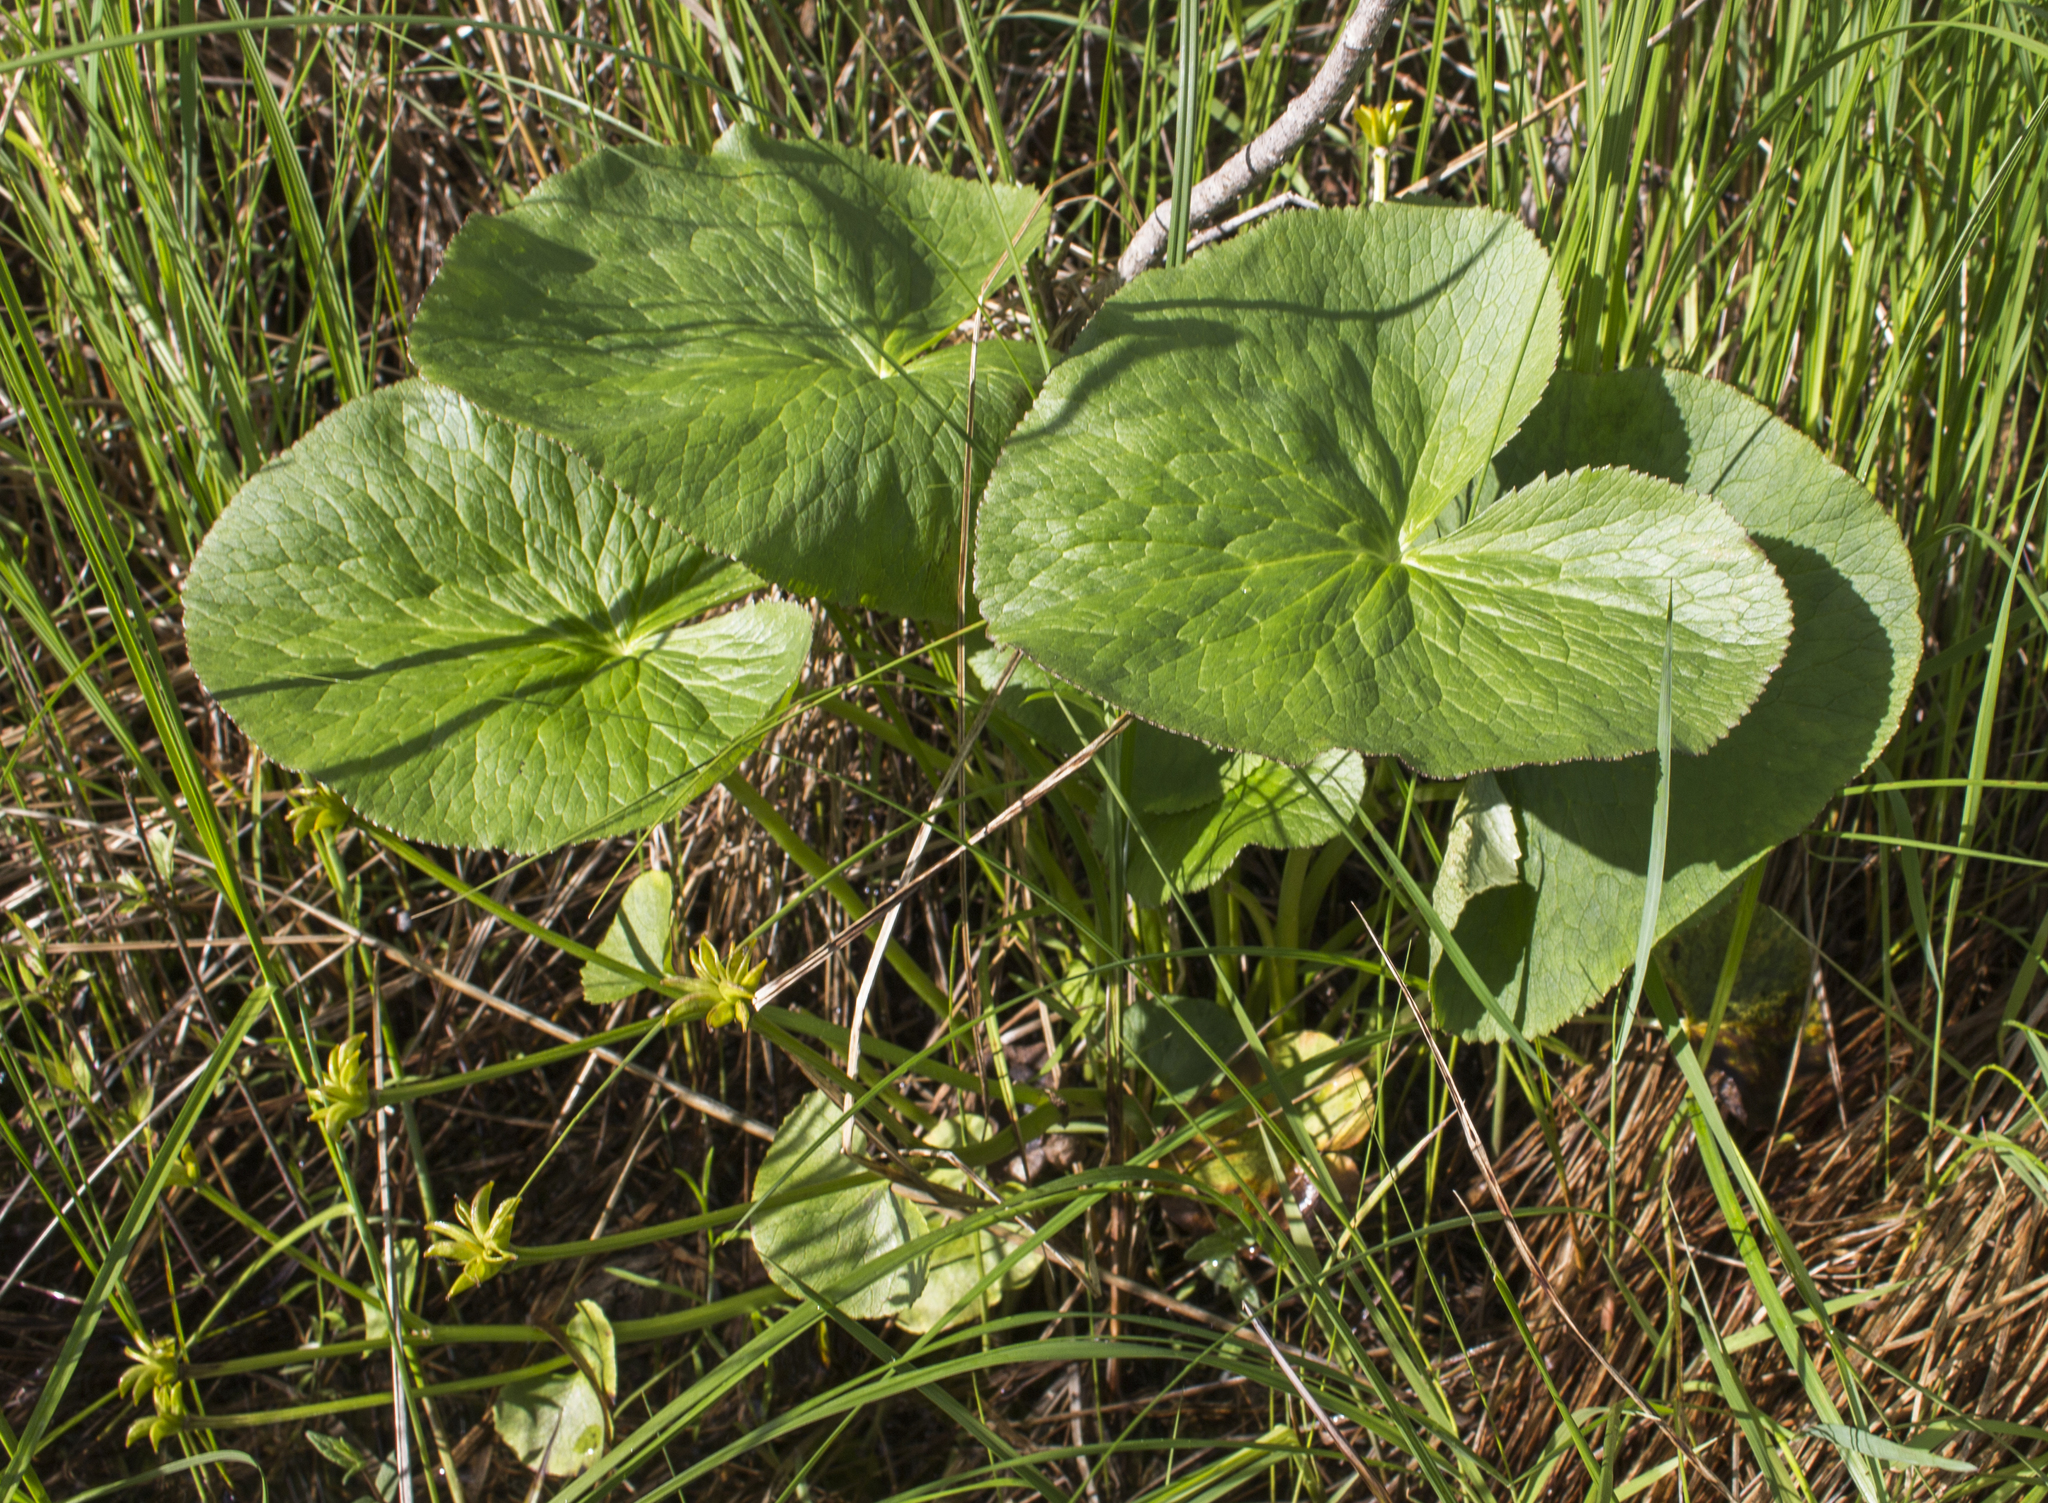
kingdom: Plantae
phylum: Tracheophyta
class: Magnoliopsida
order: Ranunculales
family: Ranunculaceae
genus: Caltha
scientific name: Caltha palustris
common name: Marsh marigold
